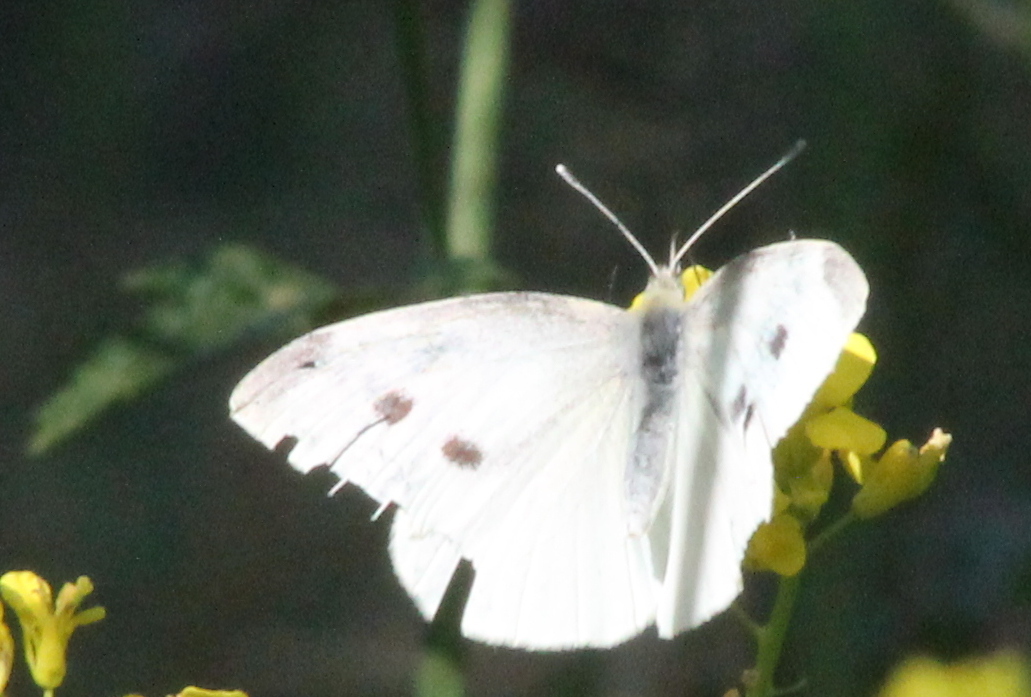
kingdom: Animalia
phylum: Arthropoda
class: Insecta
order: Lepidoptera
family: Pieridae
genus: Pieris
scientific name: Pieris rapae
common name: Small white
